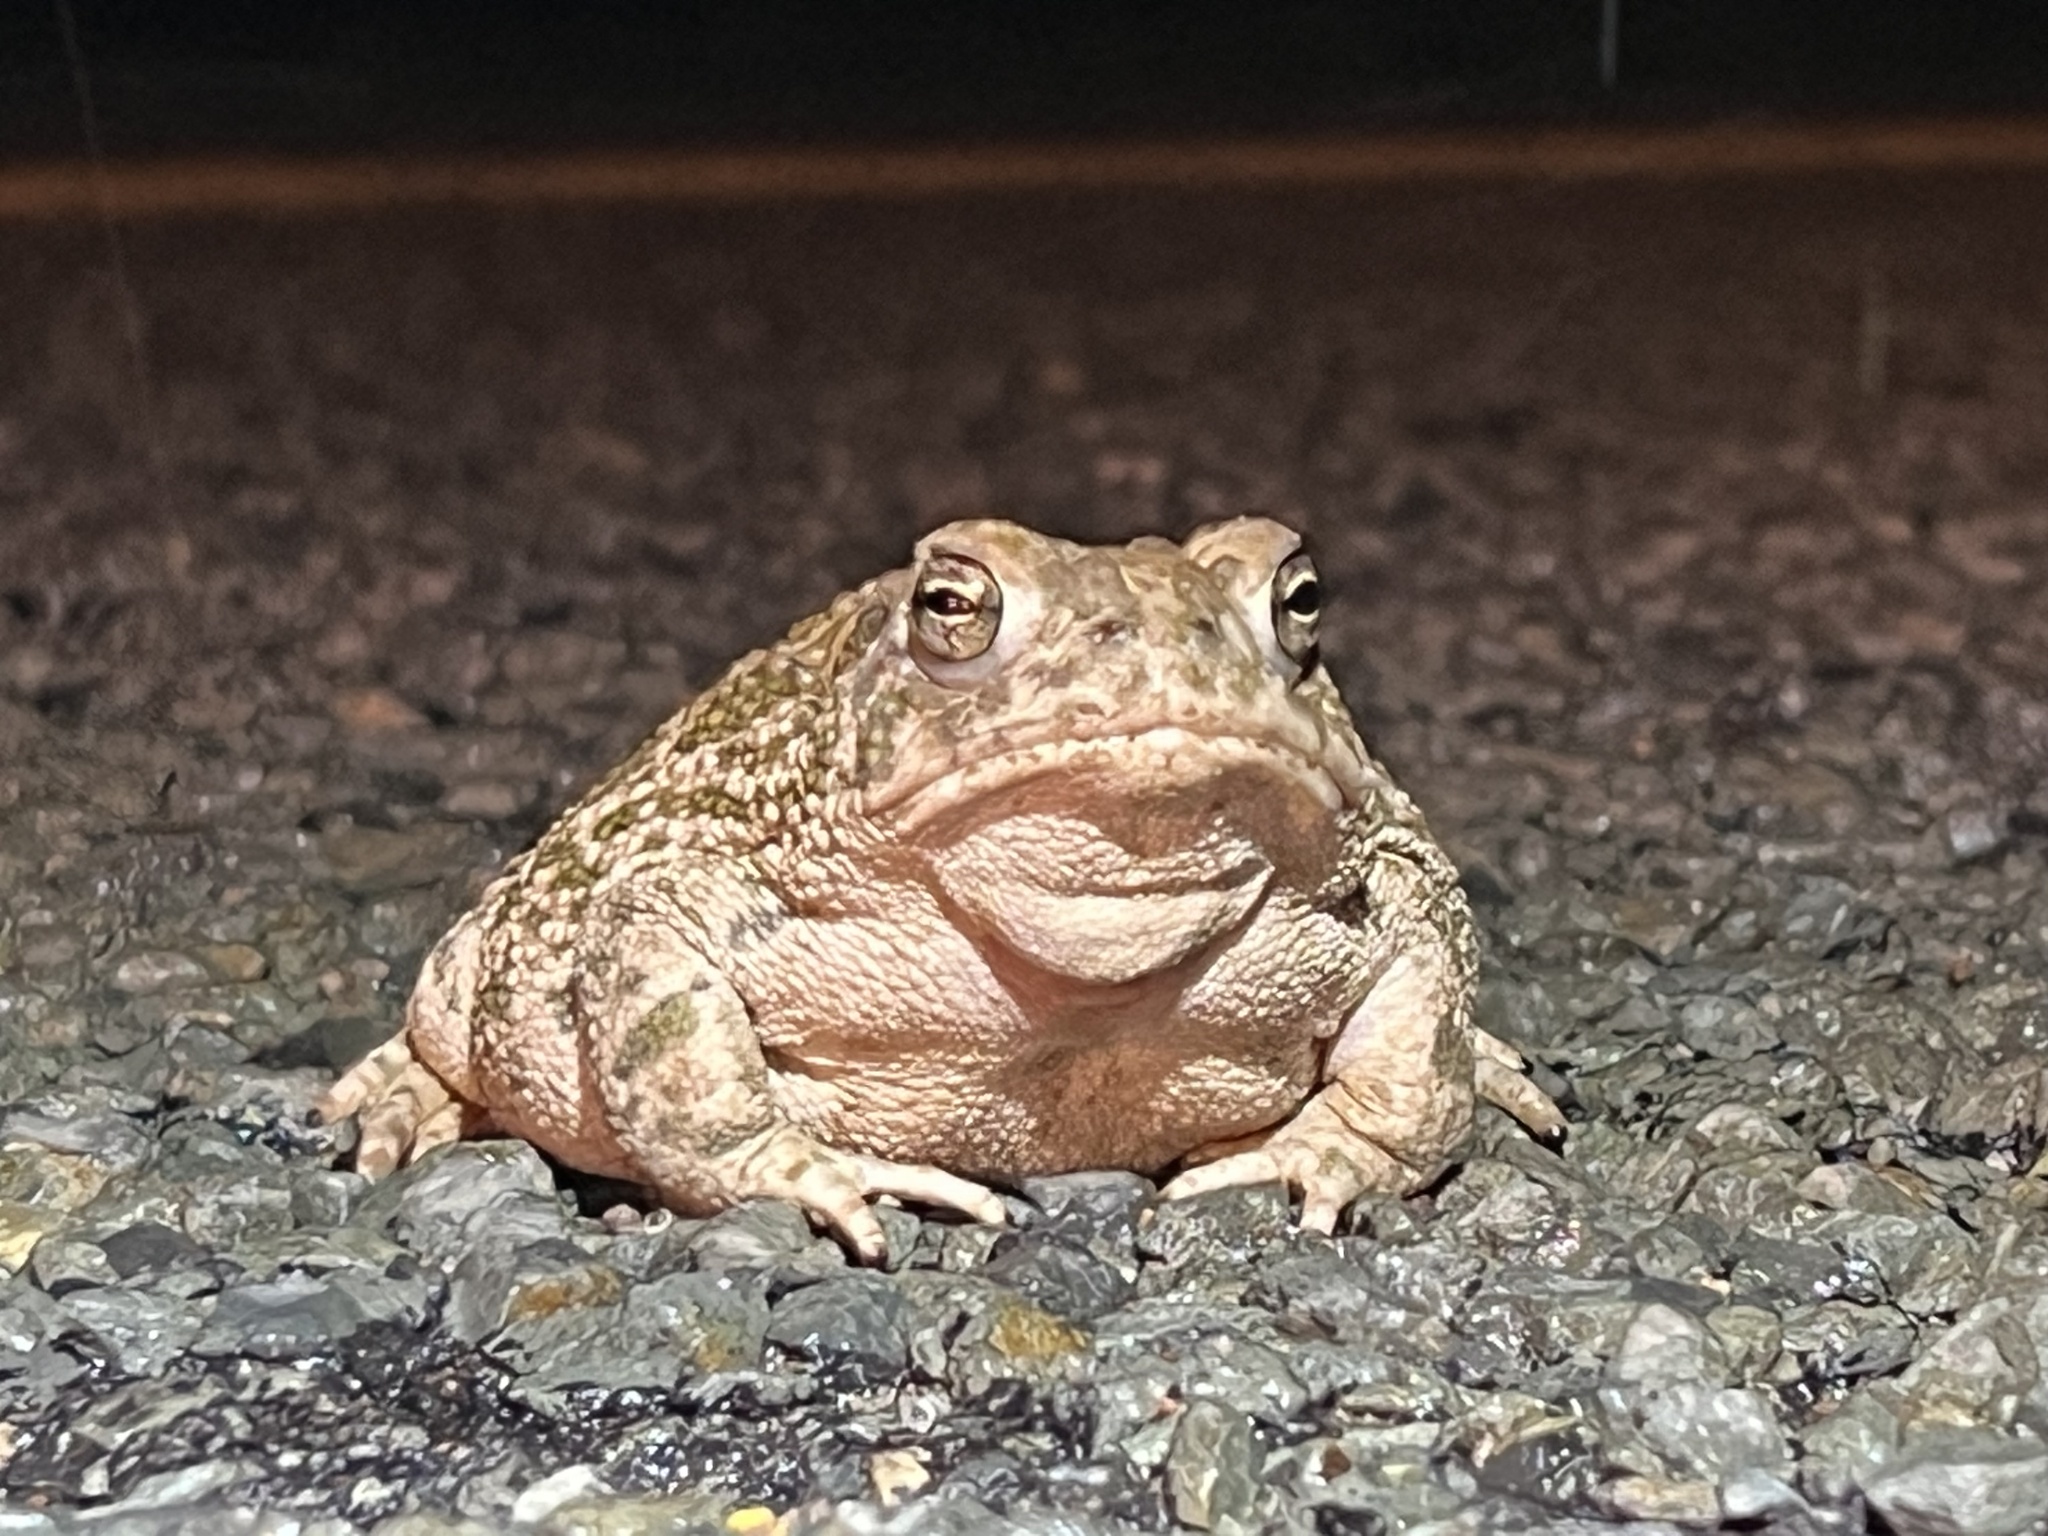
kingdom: Animalia
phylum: Chordata
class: Amphibia
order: Anura
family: Bufonidae
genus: Anaxyrus
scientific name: Anaxyrus cognatus
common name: Great plains toad
